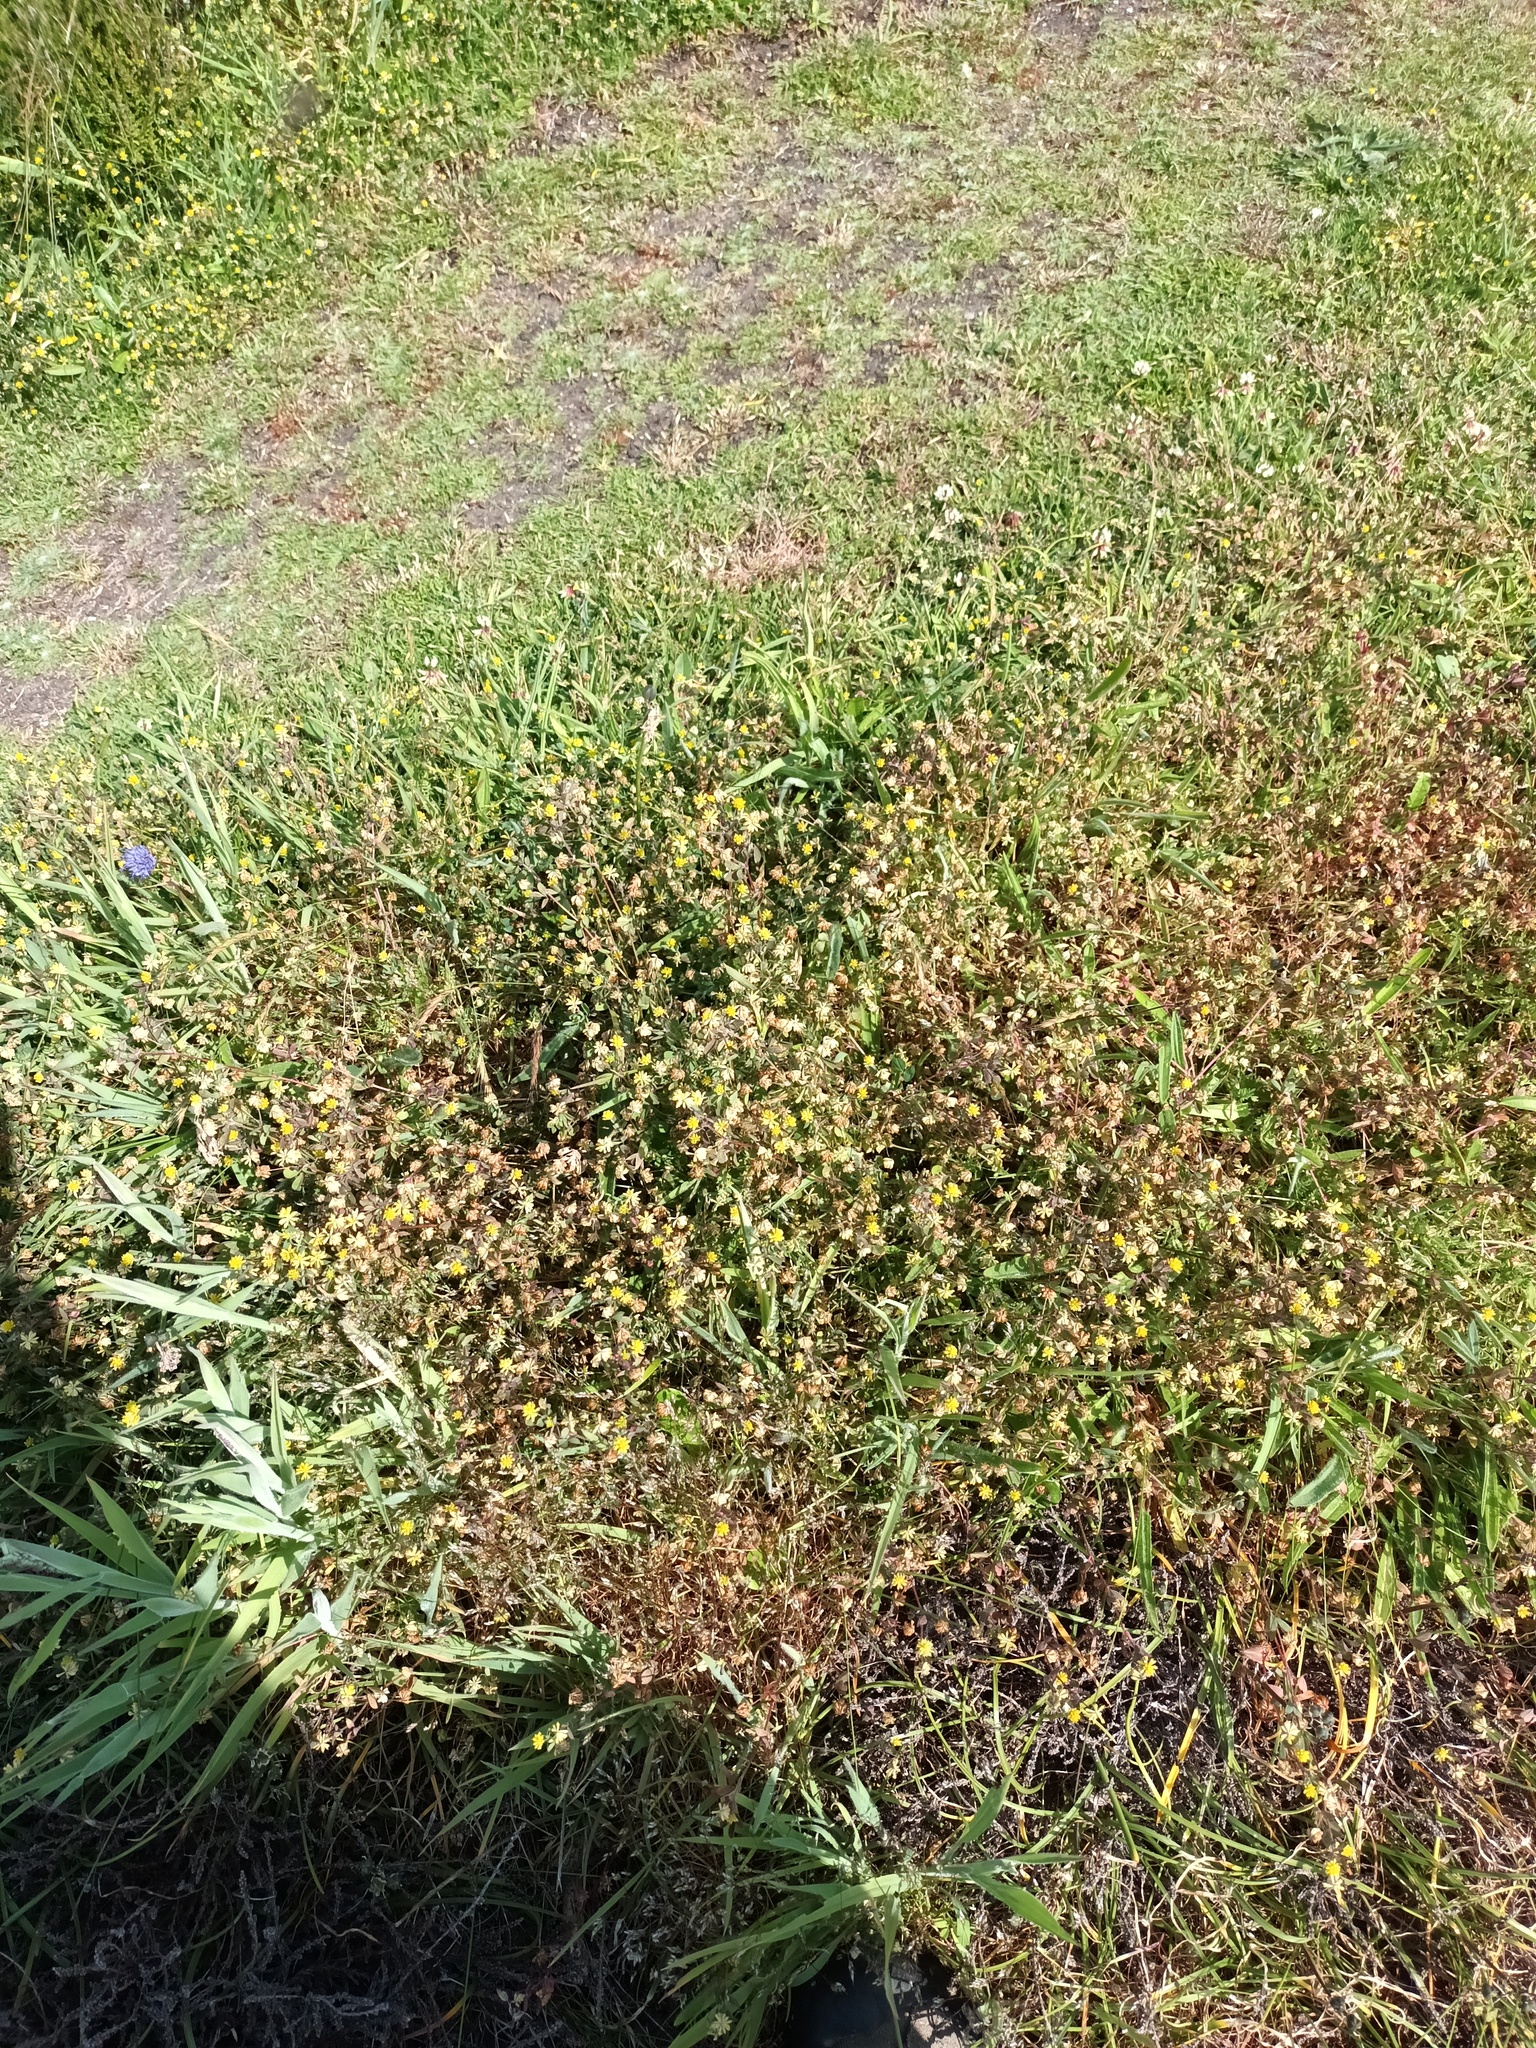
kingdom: Plantae
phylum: Tracheophyta
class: Magnoliopsida
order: Fabales
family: Fabaceae
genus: Trifolium
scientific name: Trifolium dubium
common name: Suckling clover
